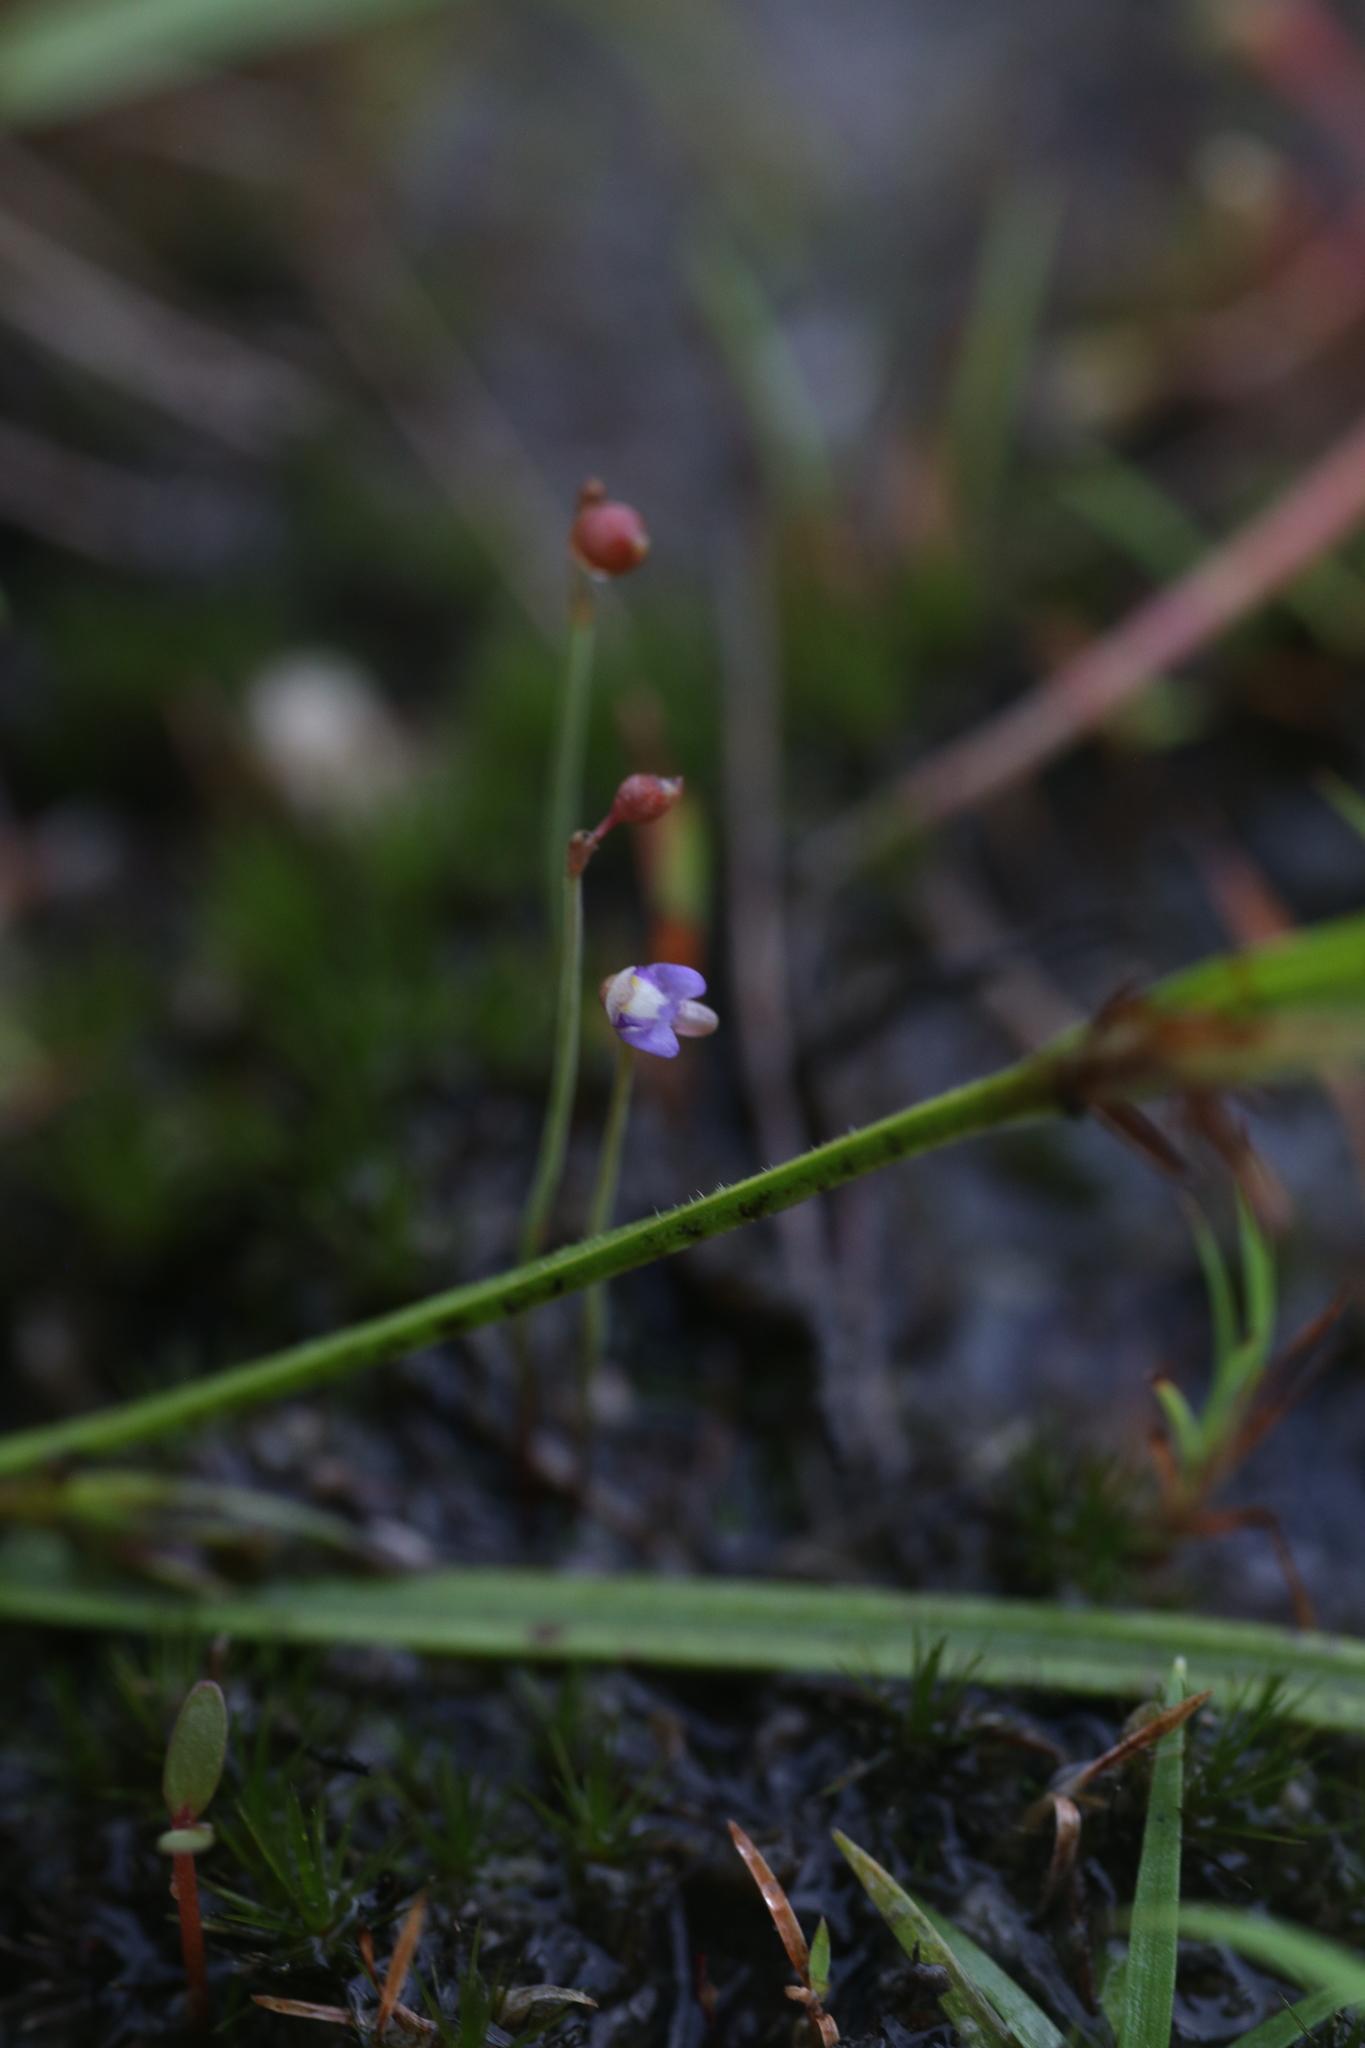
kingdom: Plantae
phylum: Tracheophyta
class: Magnoliopsida
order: Lamiales
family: Lentibulariaceae
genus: Utricularia
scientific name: Utricularia limosa
